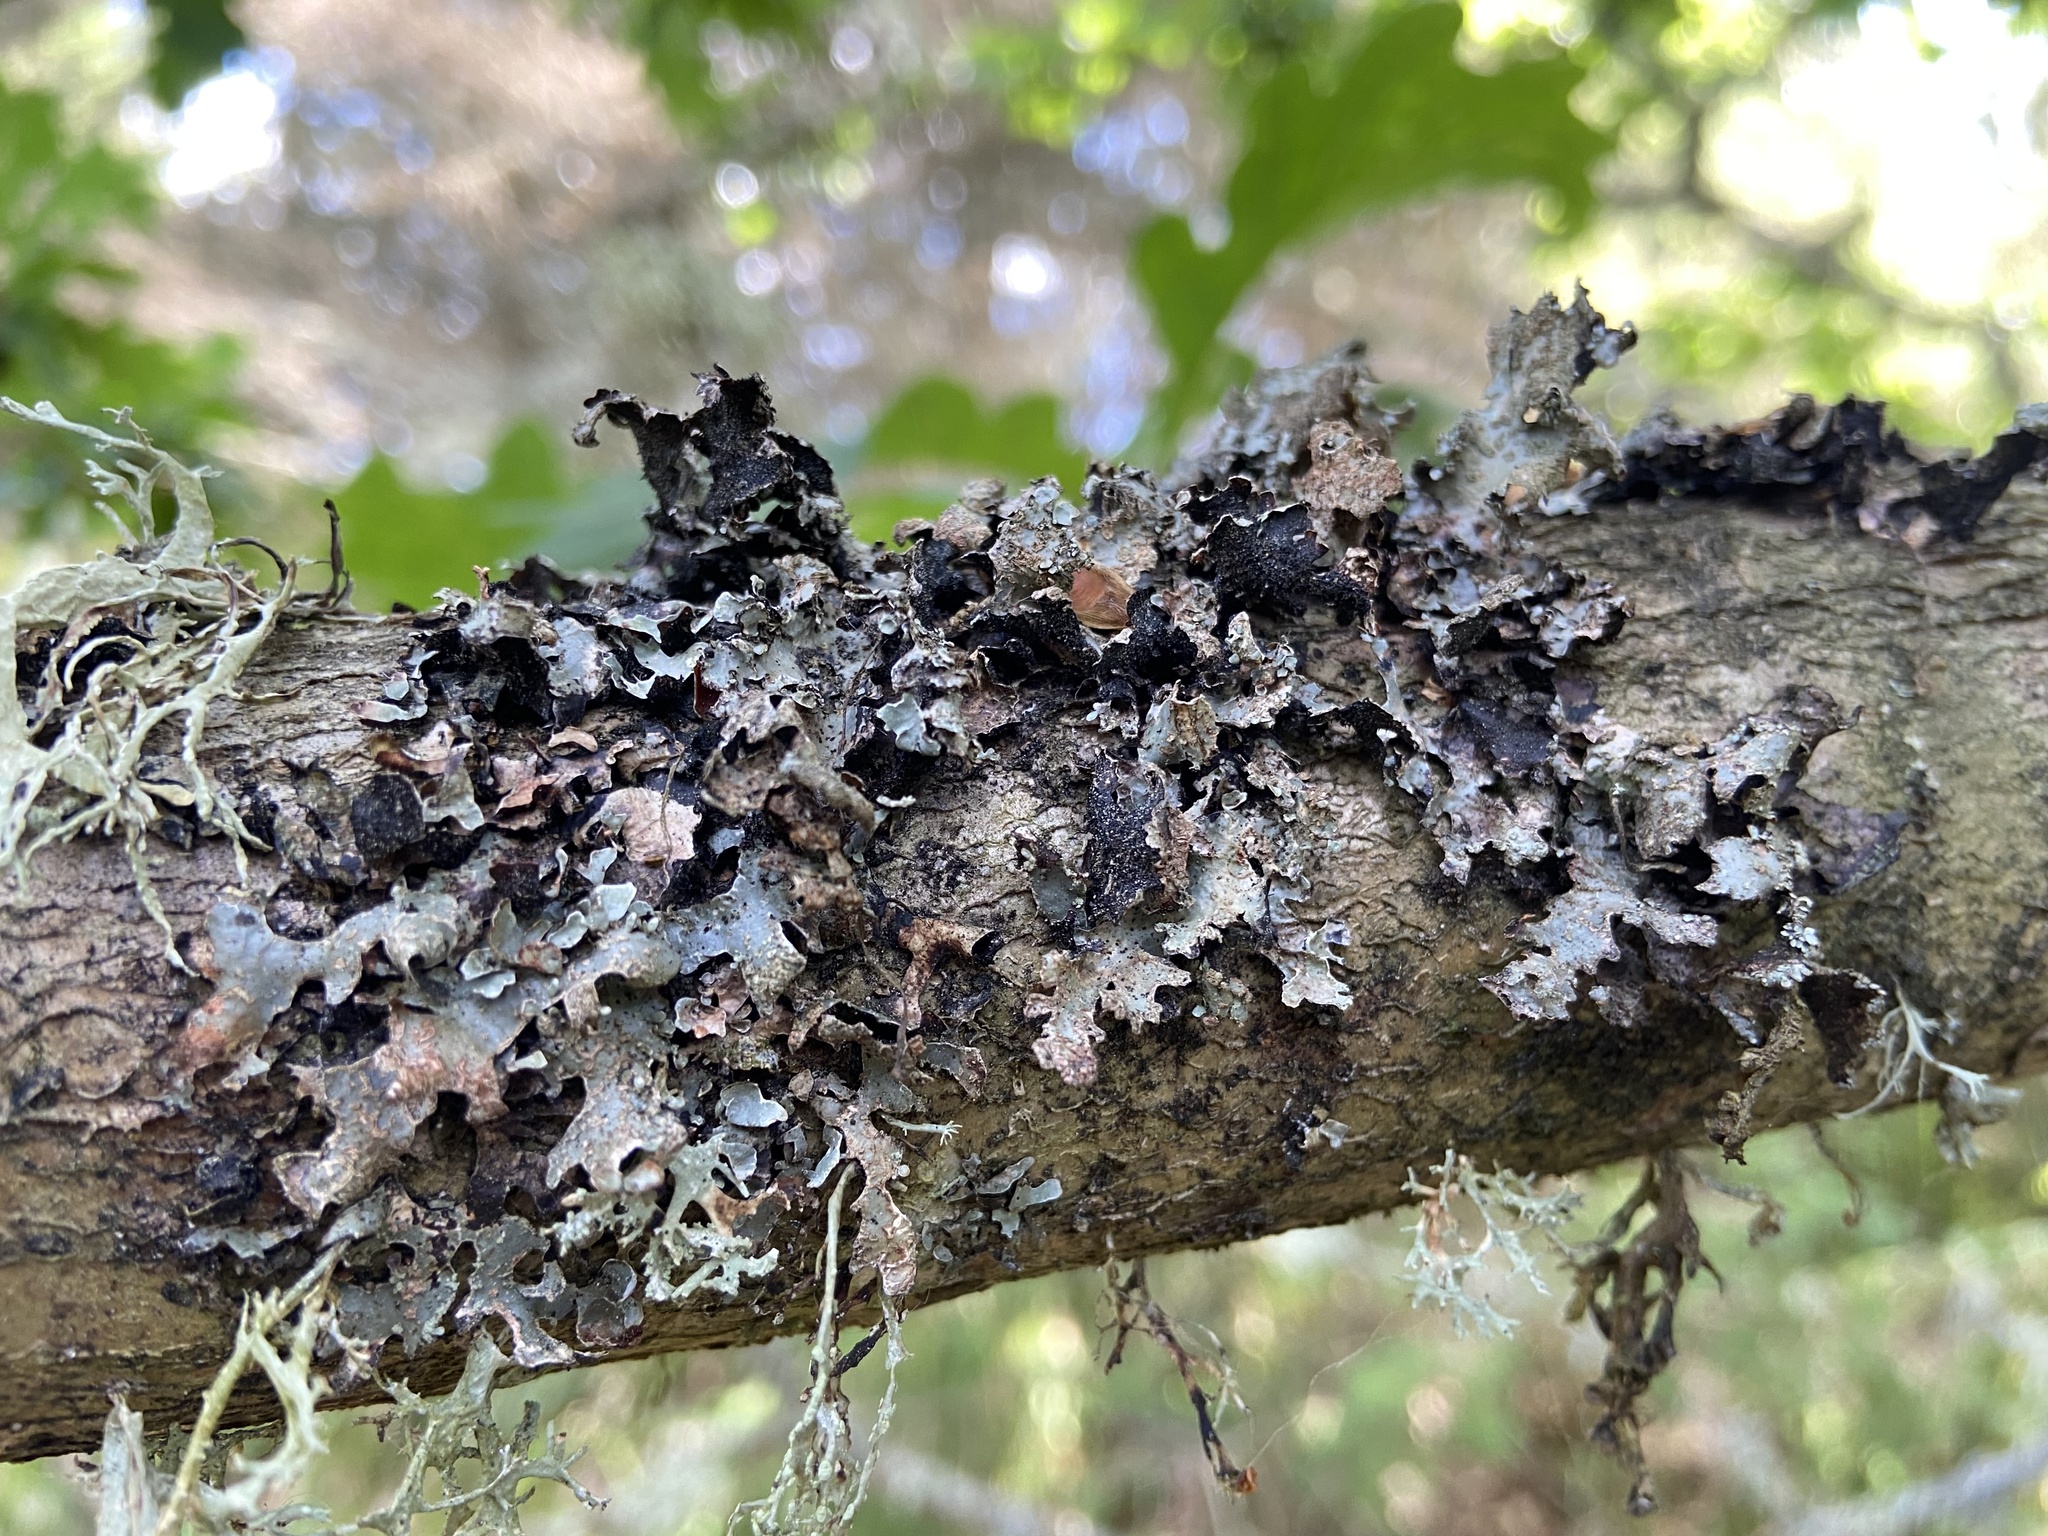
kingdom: Fungi
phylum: Ascomycota
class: Lecanoromycetes
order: Lecanorales
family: Parmeliaceae
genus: Parmelia
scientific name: Parmelia sulcata
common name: Netted shield lichen
